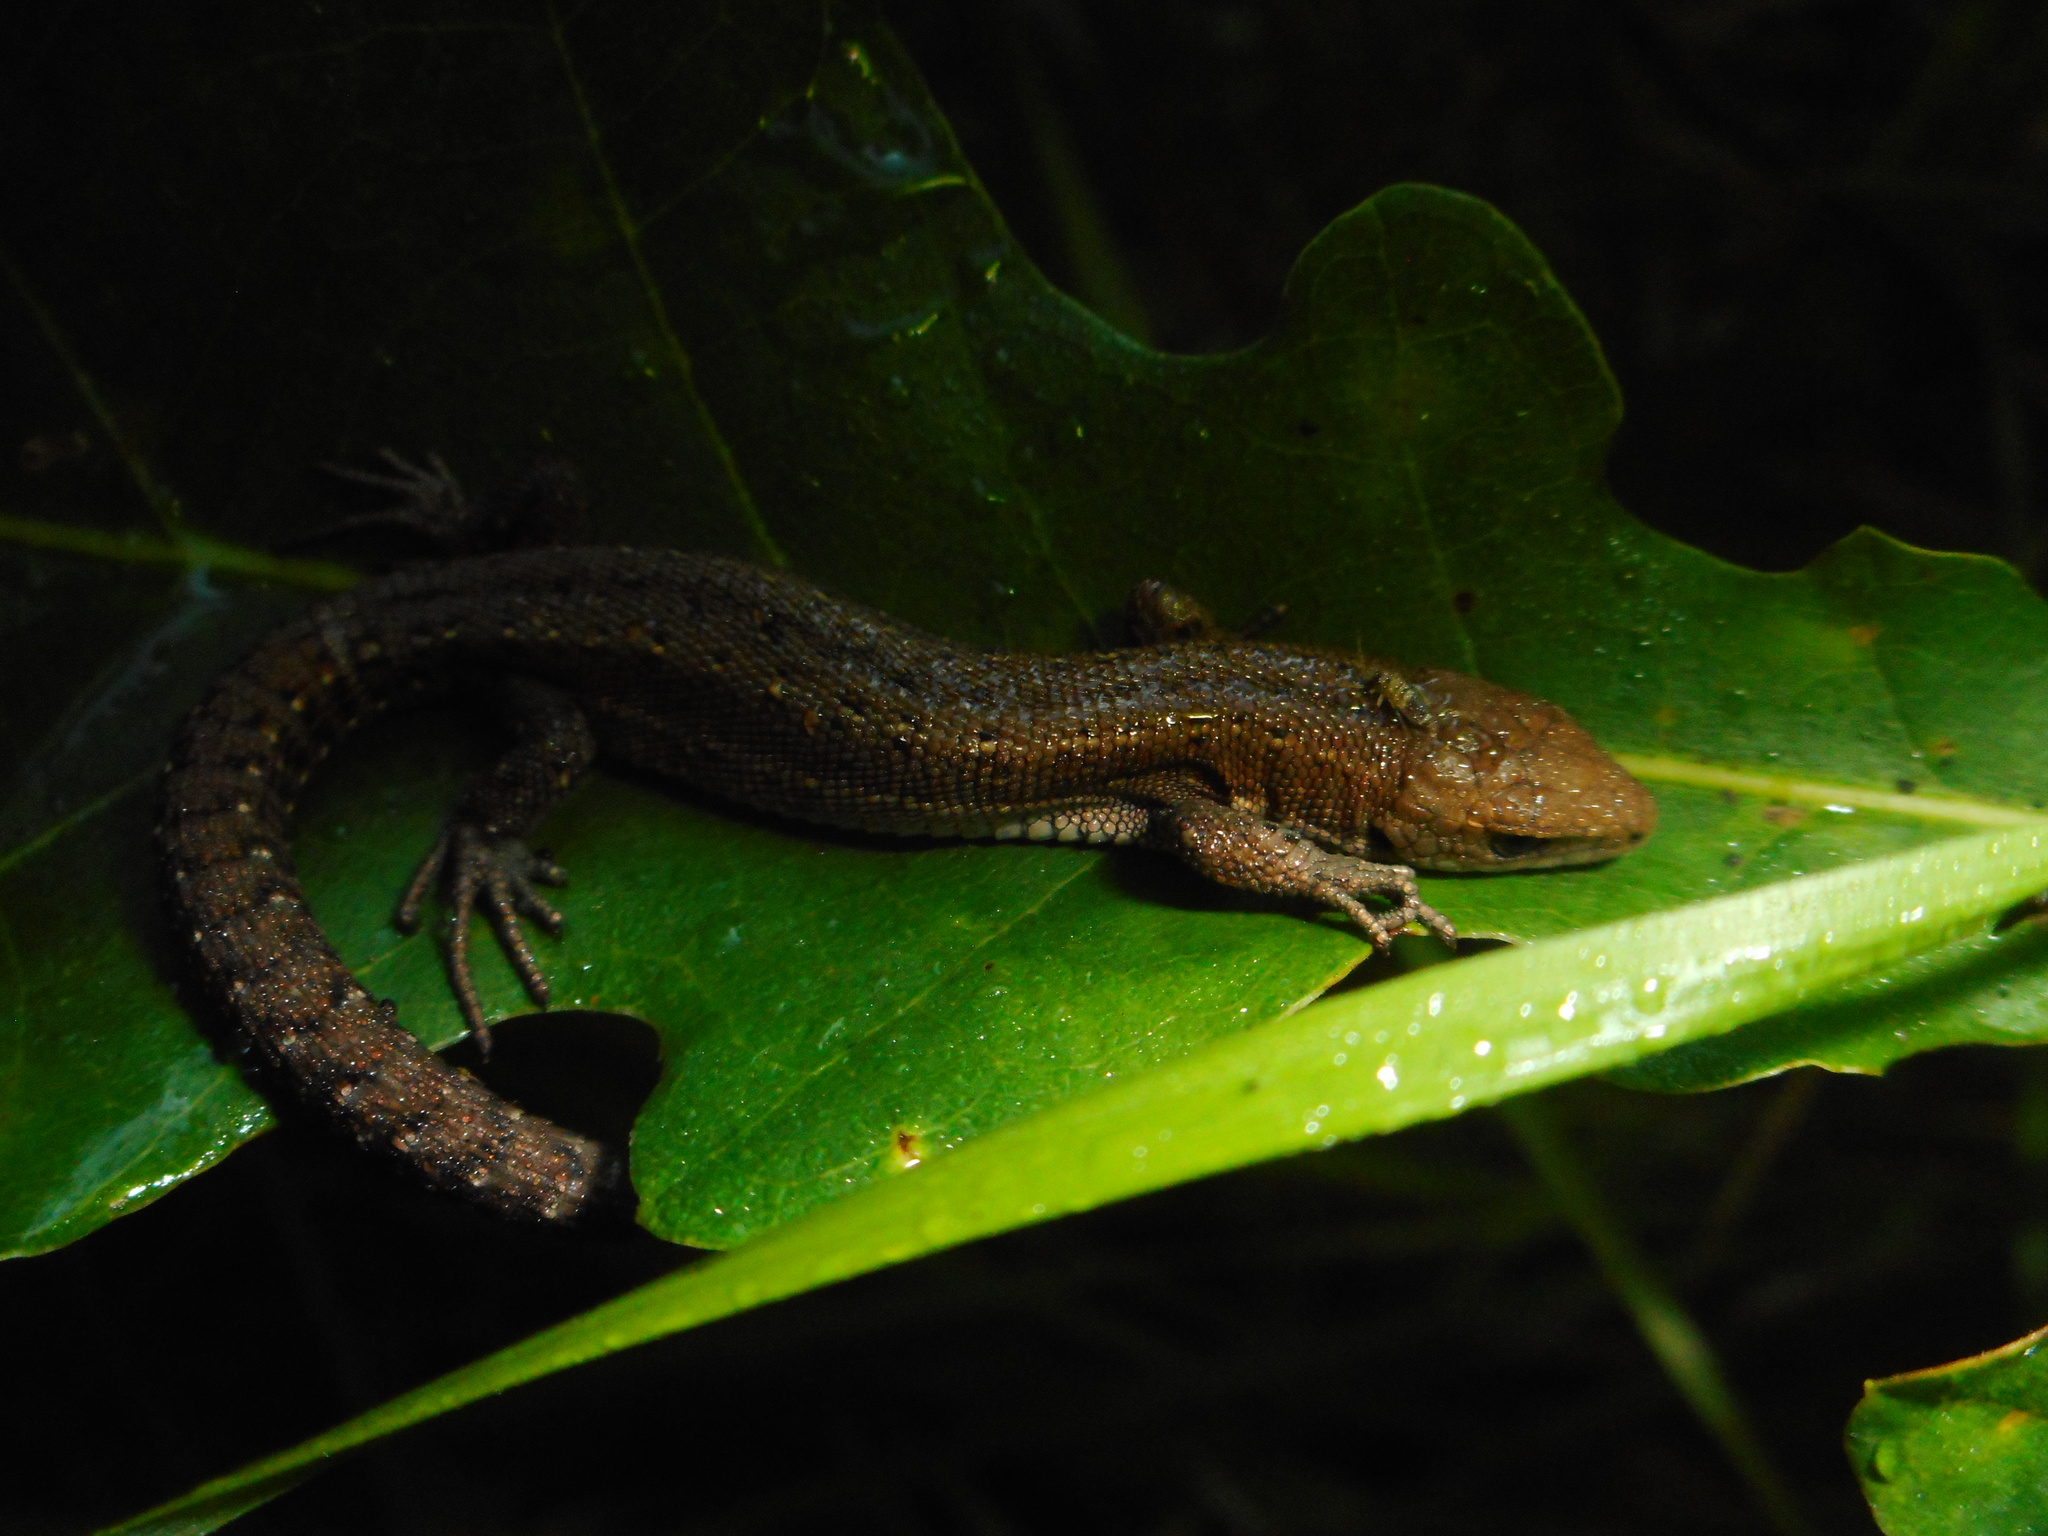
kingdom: Animalia
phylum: Chordata
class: Squamata
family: Lacertidae
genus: Zootoca
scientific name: Zootoca vivipara
